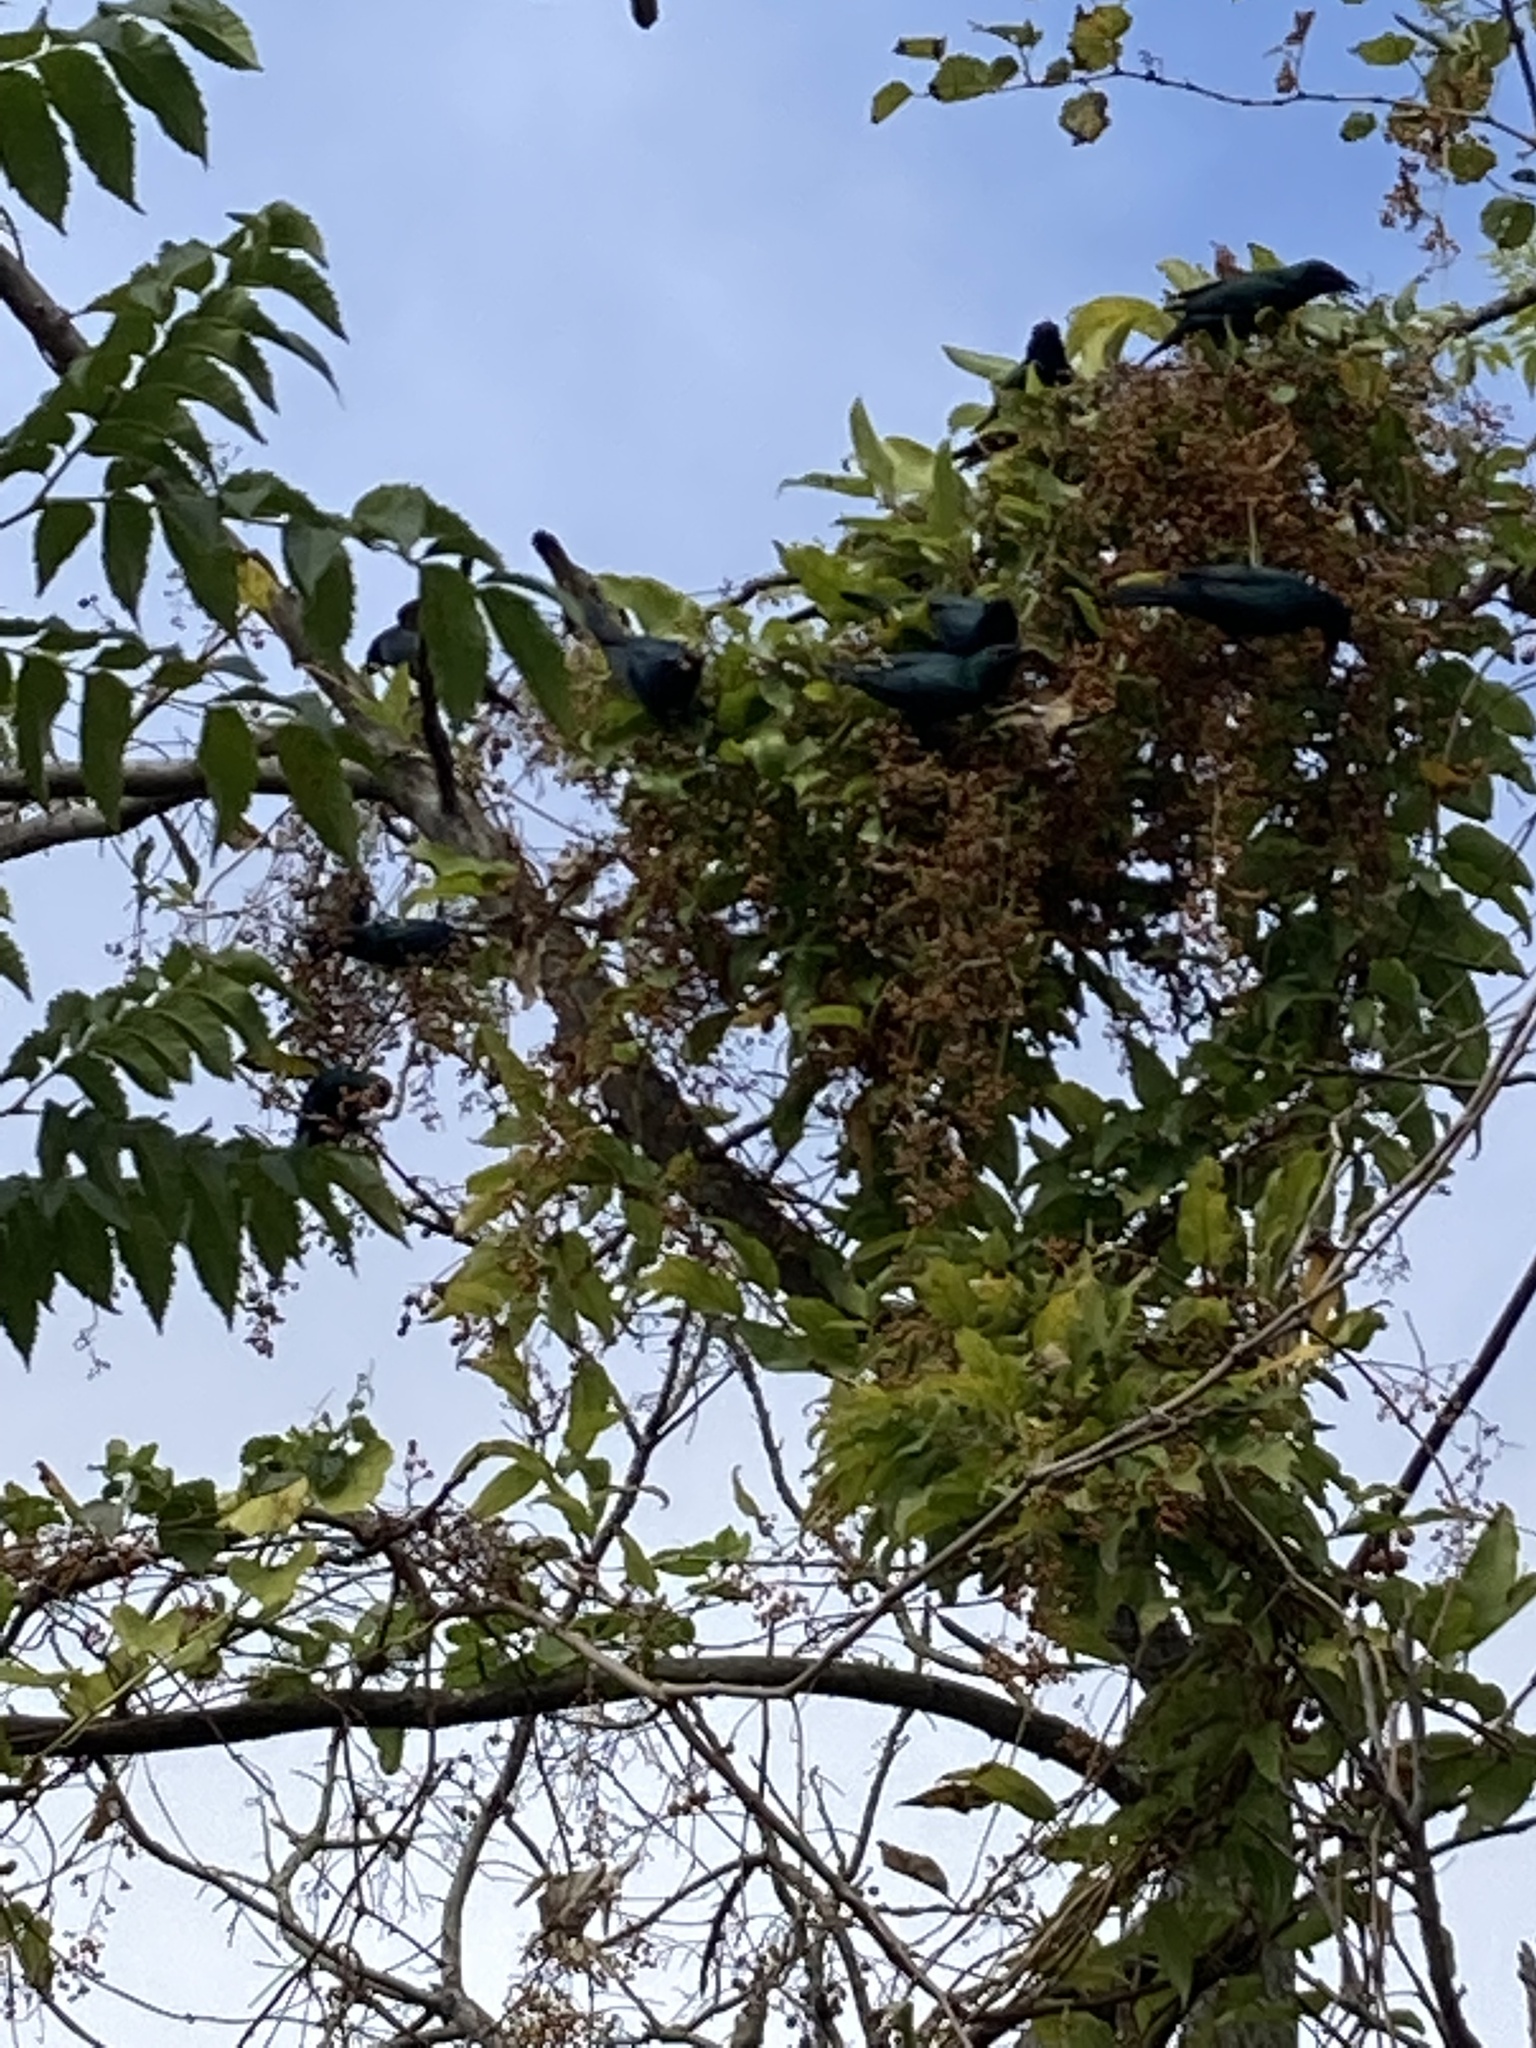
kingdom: Animalia
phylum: Chordata
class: Aves
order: Passeriformes
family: Sturnidae
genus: Aplonis
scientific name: Aplonis panayensis
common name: Asian glossy starling
